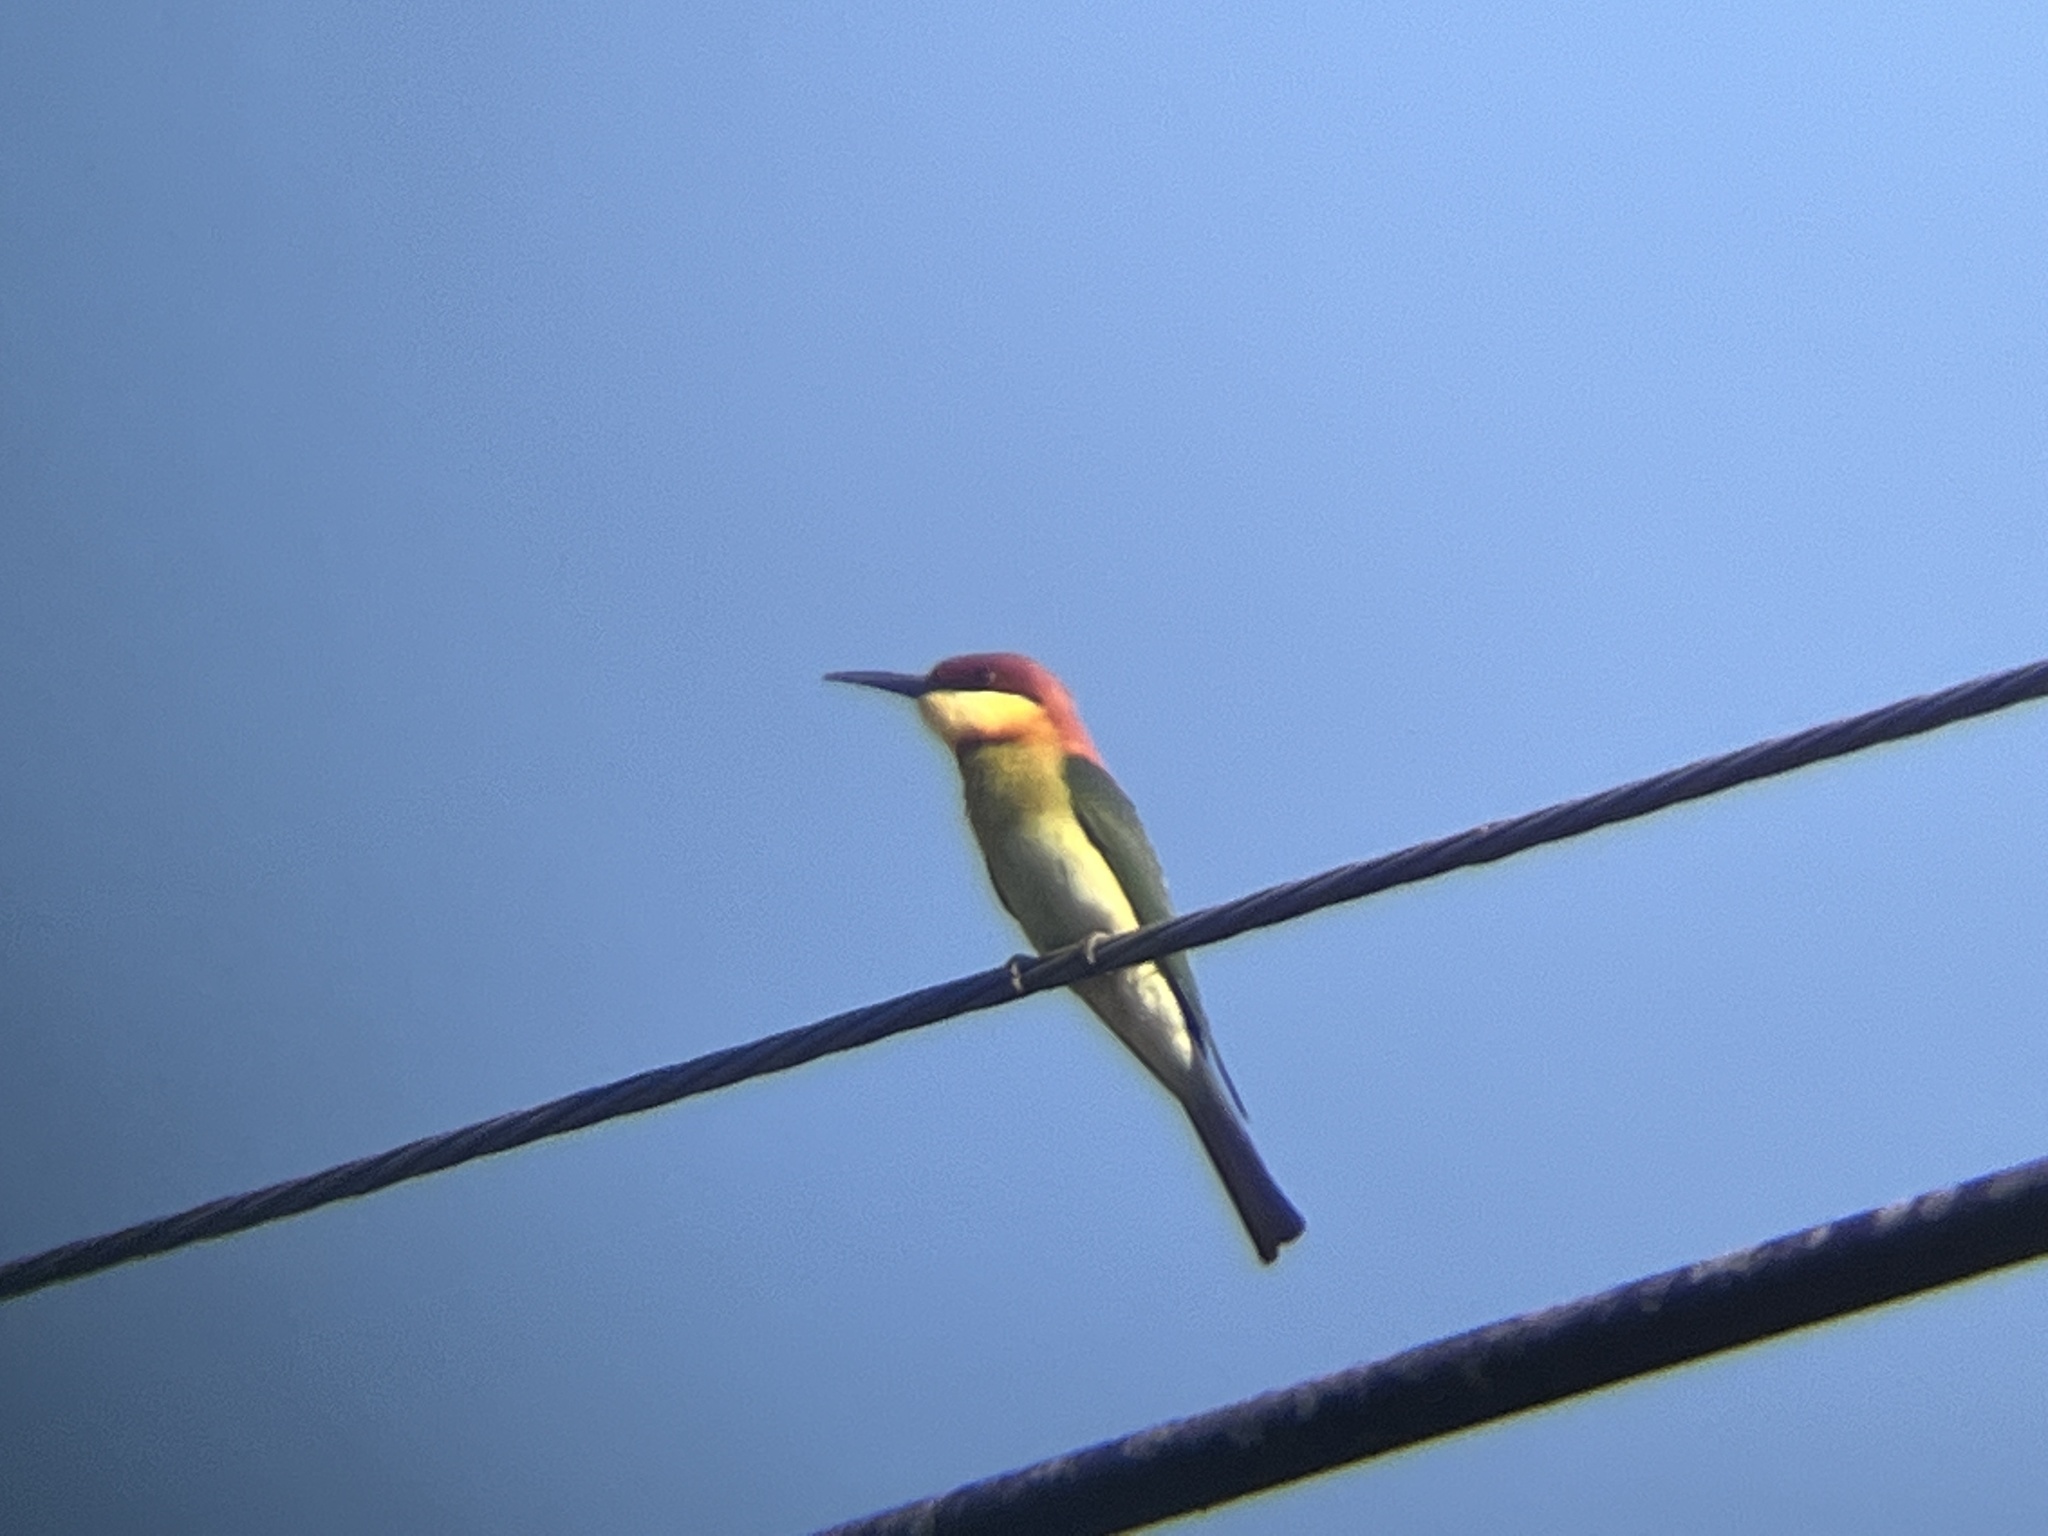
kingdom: Animalia
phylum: Chordata
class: Aves
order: Coraciiformes
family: Meropidae
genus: Merops
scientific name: Merops leschenaulti
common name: Chestnut-headed bee-eater
